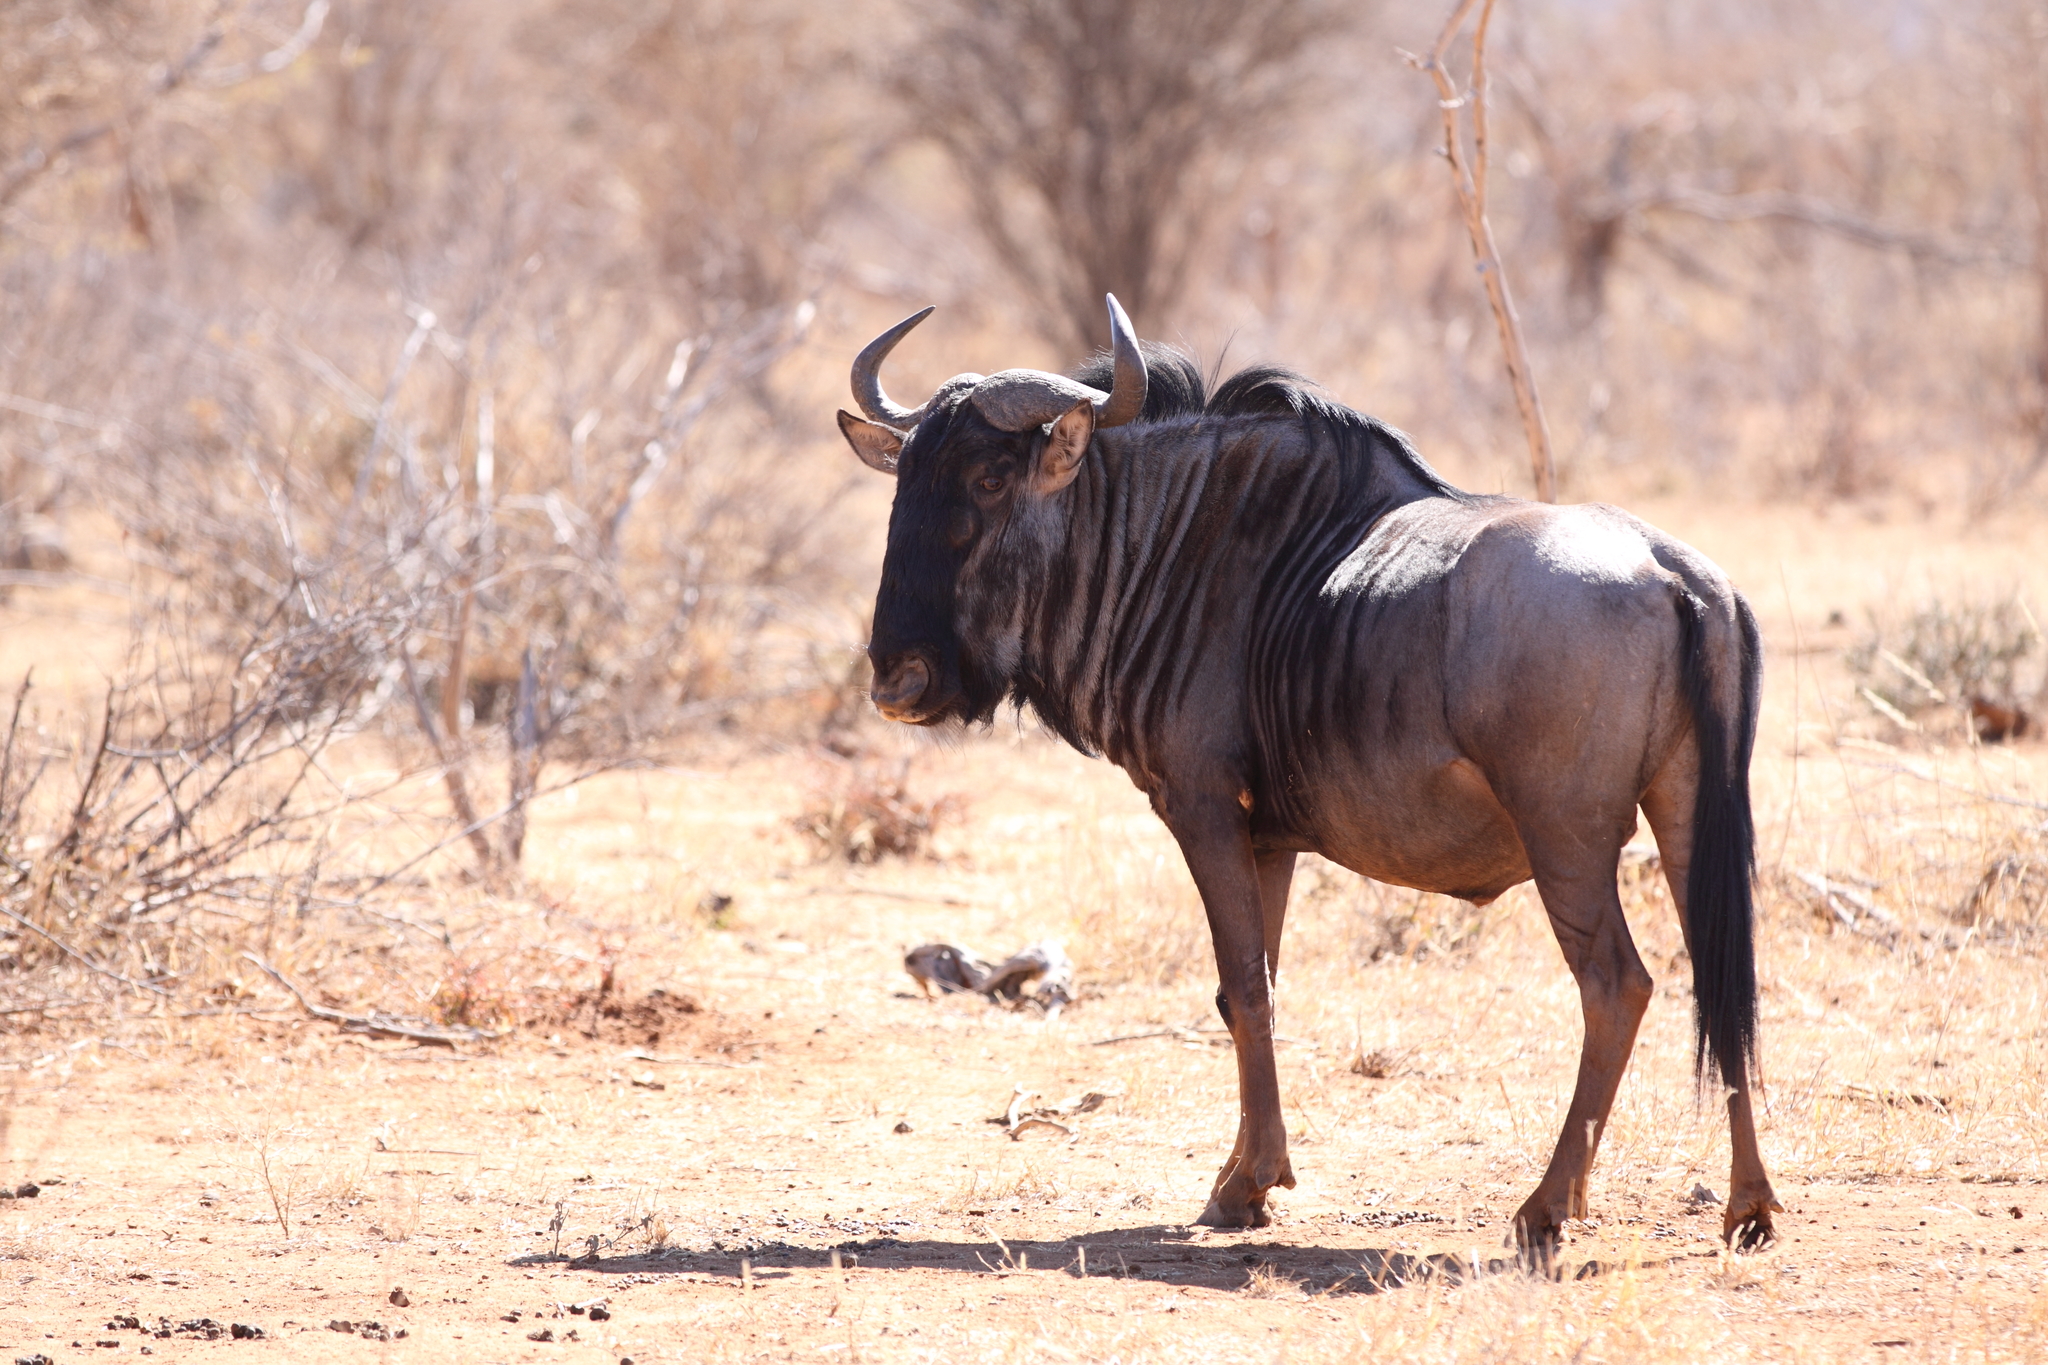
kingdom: Animalia
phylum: Chordata
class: Mammalia
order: Artiodactyla
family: Bovidae
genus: Connochaetes
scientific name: Connochaetes taurinus
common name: Blue wildebeest
